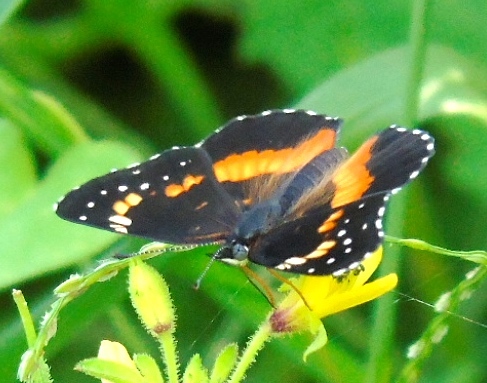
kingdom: Animalia
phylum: Arthropoda
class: Insecta
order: Lepidoptera
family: Nymphalidae
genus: Chlosyne
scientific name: Chlosyne lacinia
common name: Bordered patch
